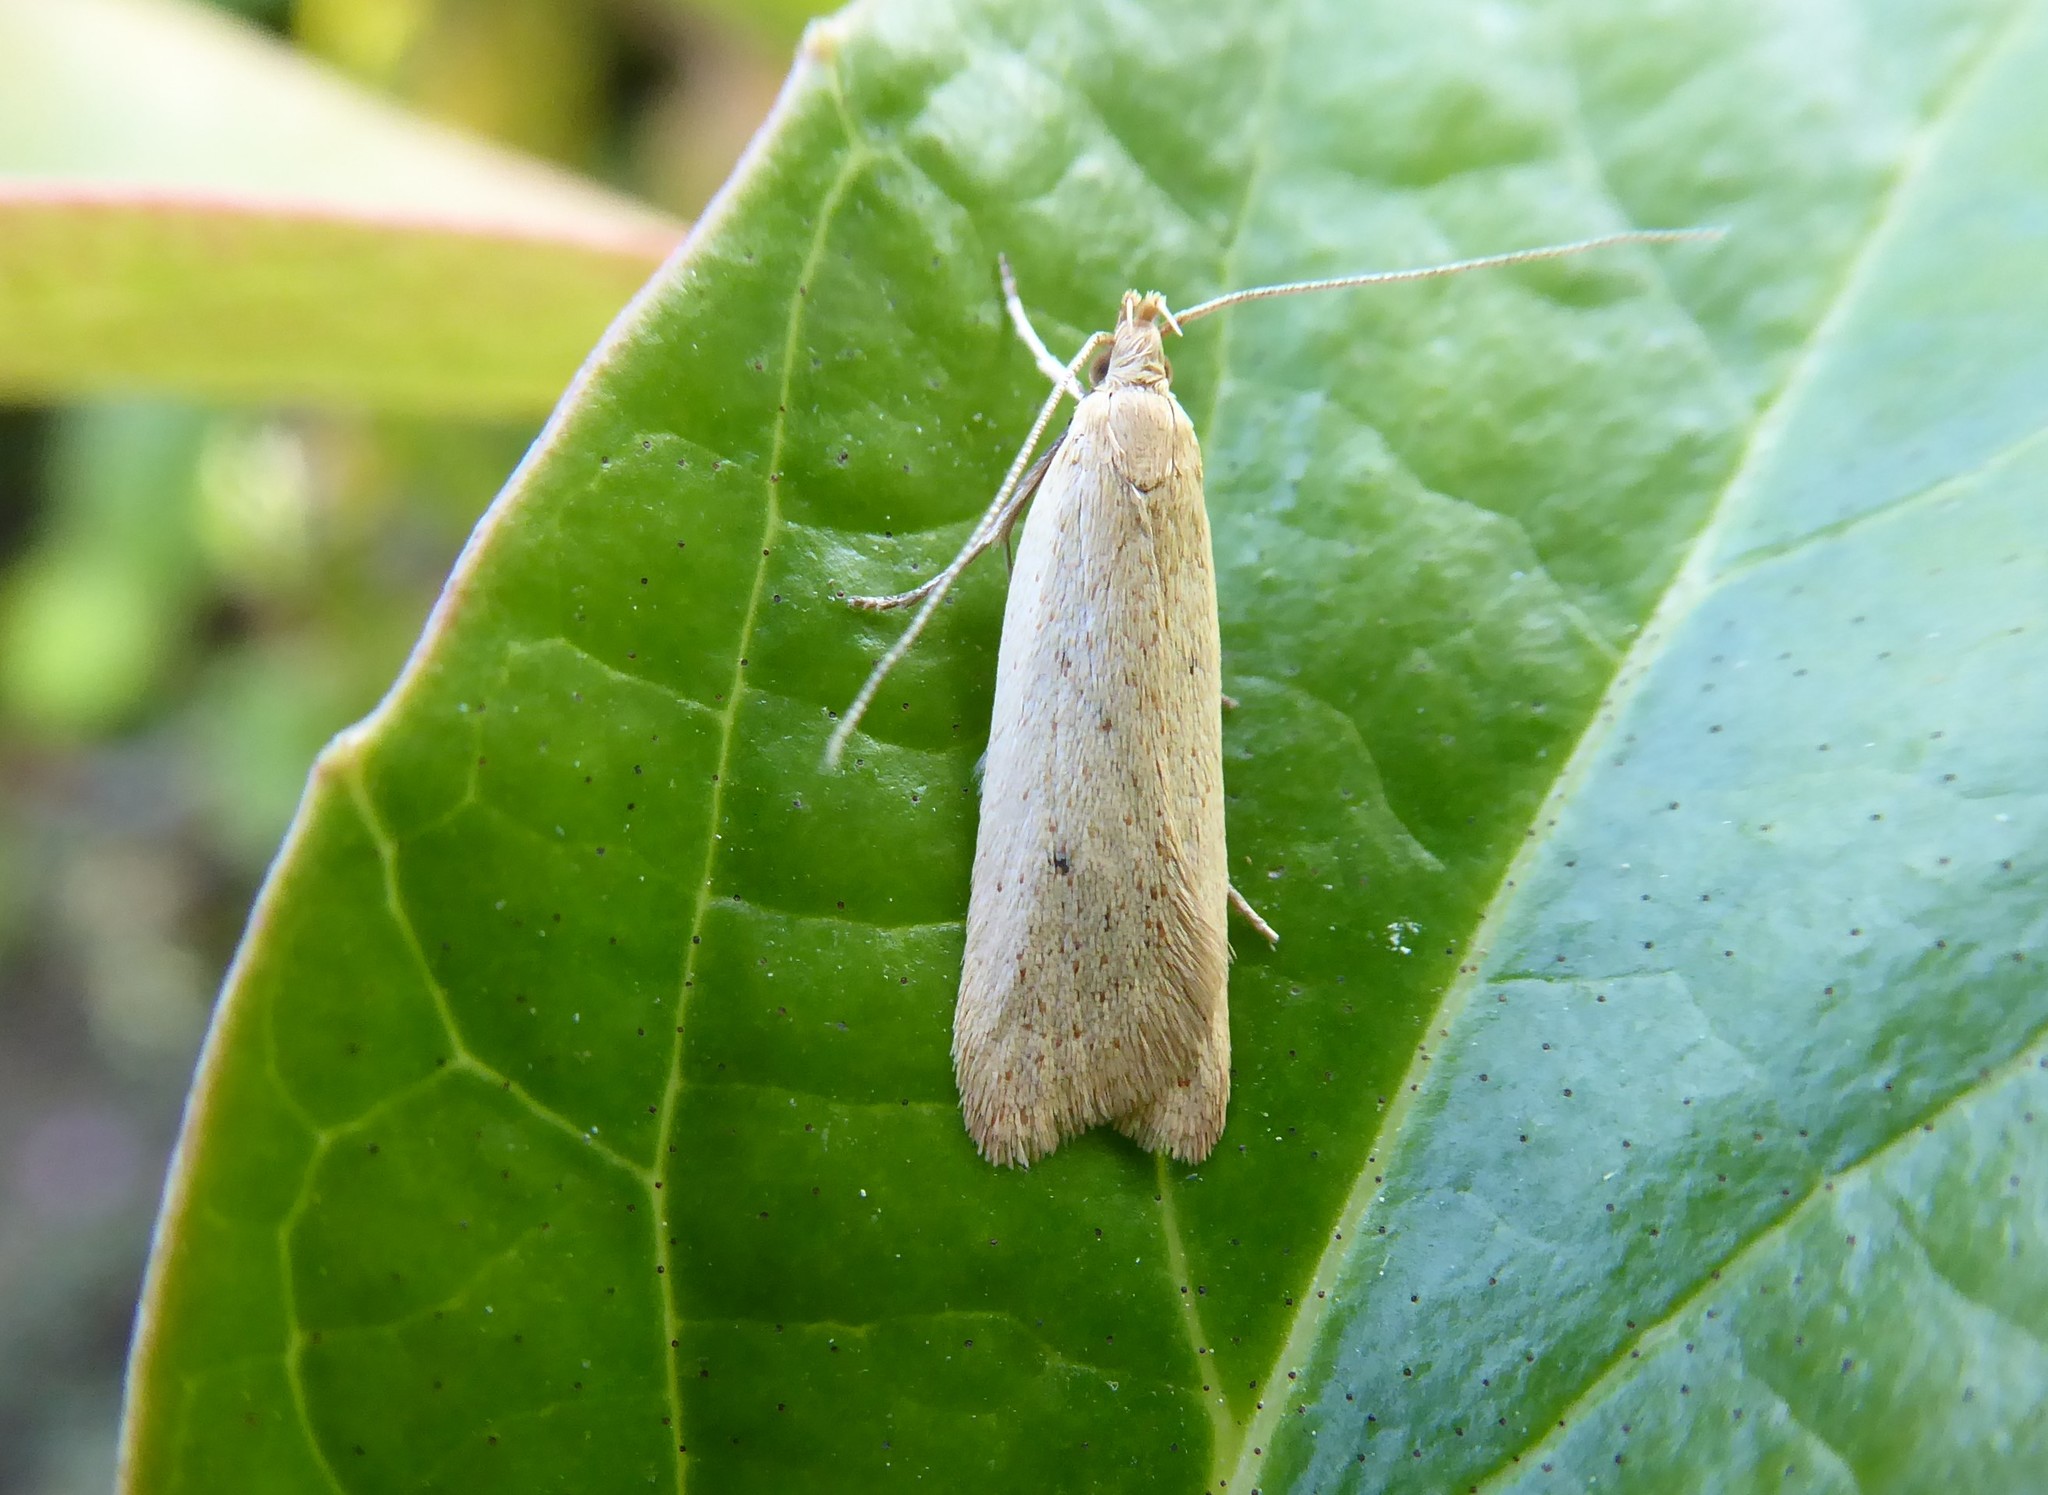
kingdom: Animalia
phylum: Arthropoda
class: Insecta
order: Lepidoptera
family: Oecophoridae
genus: Gymnobathra
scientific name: Gymnobathra sarcoxantha
